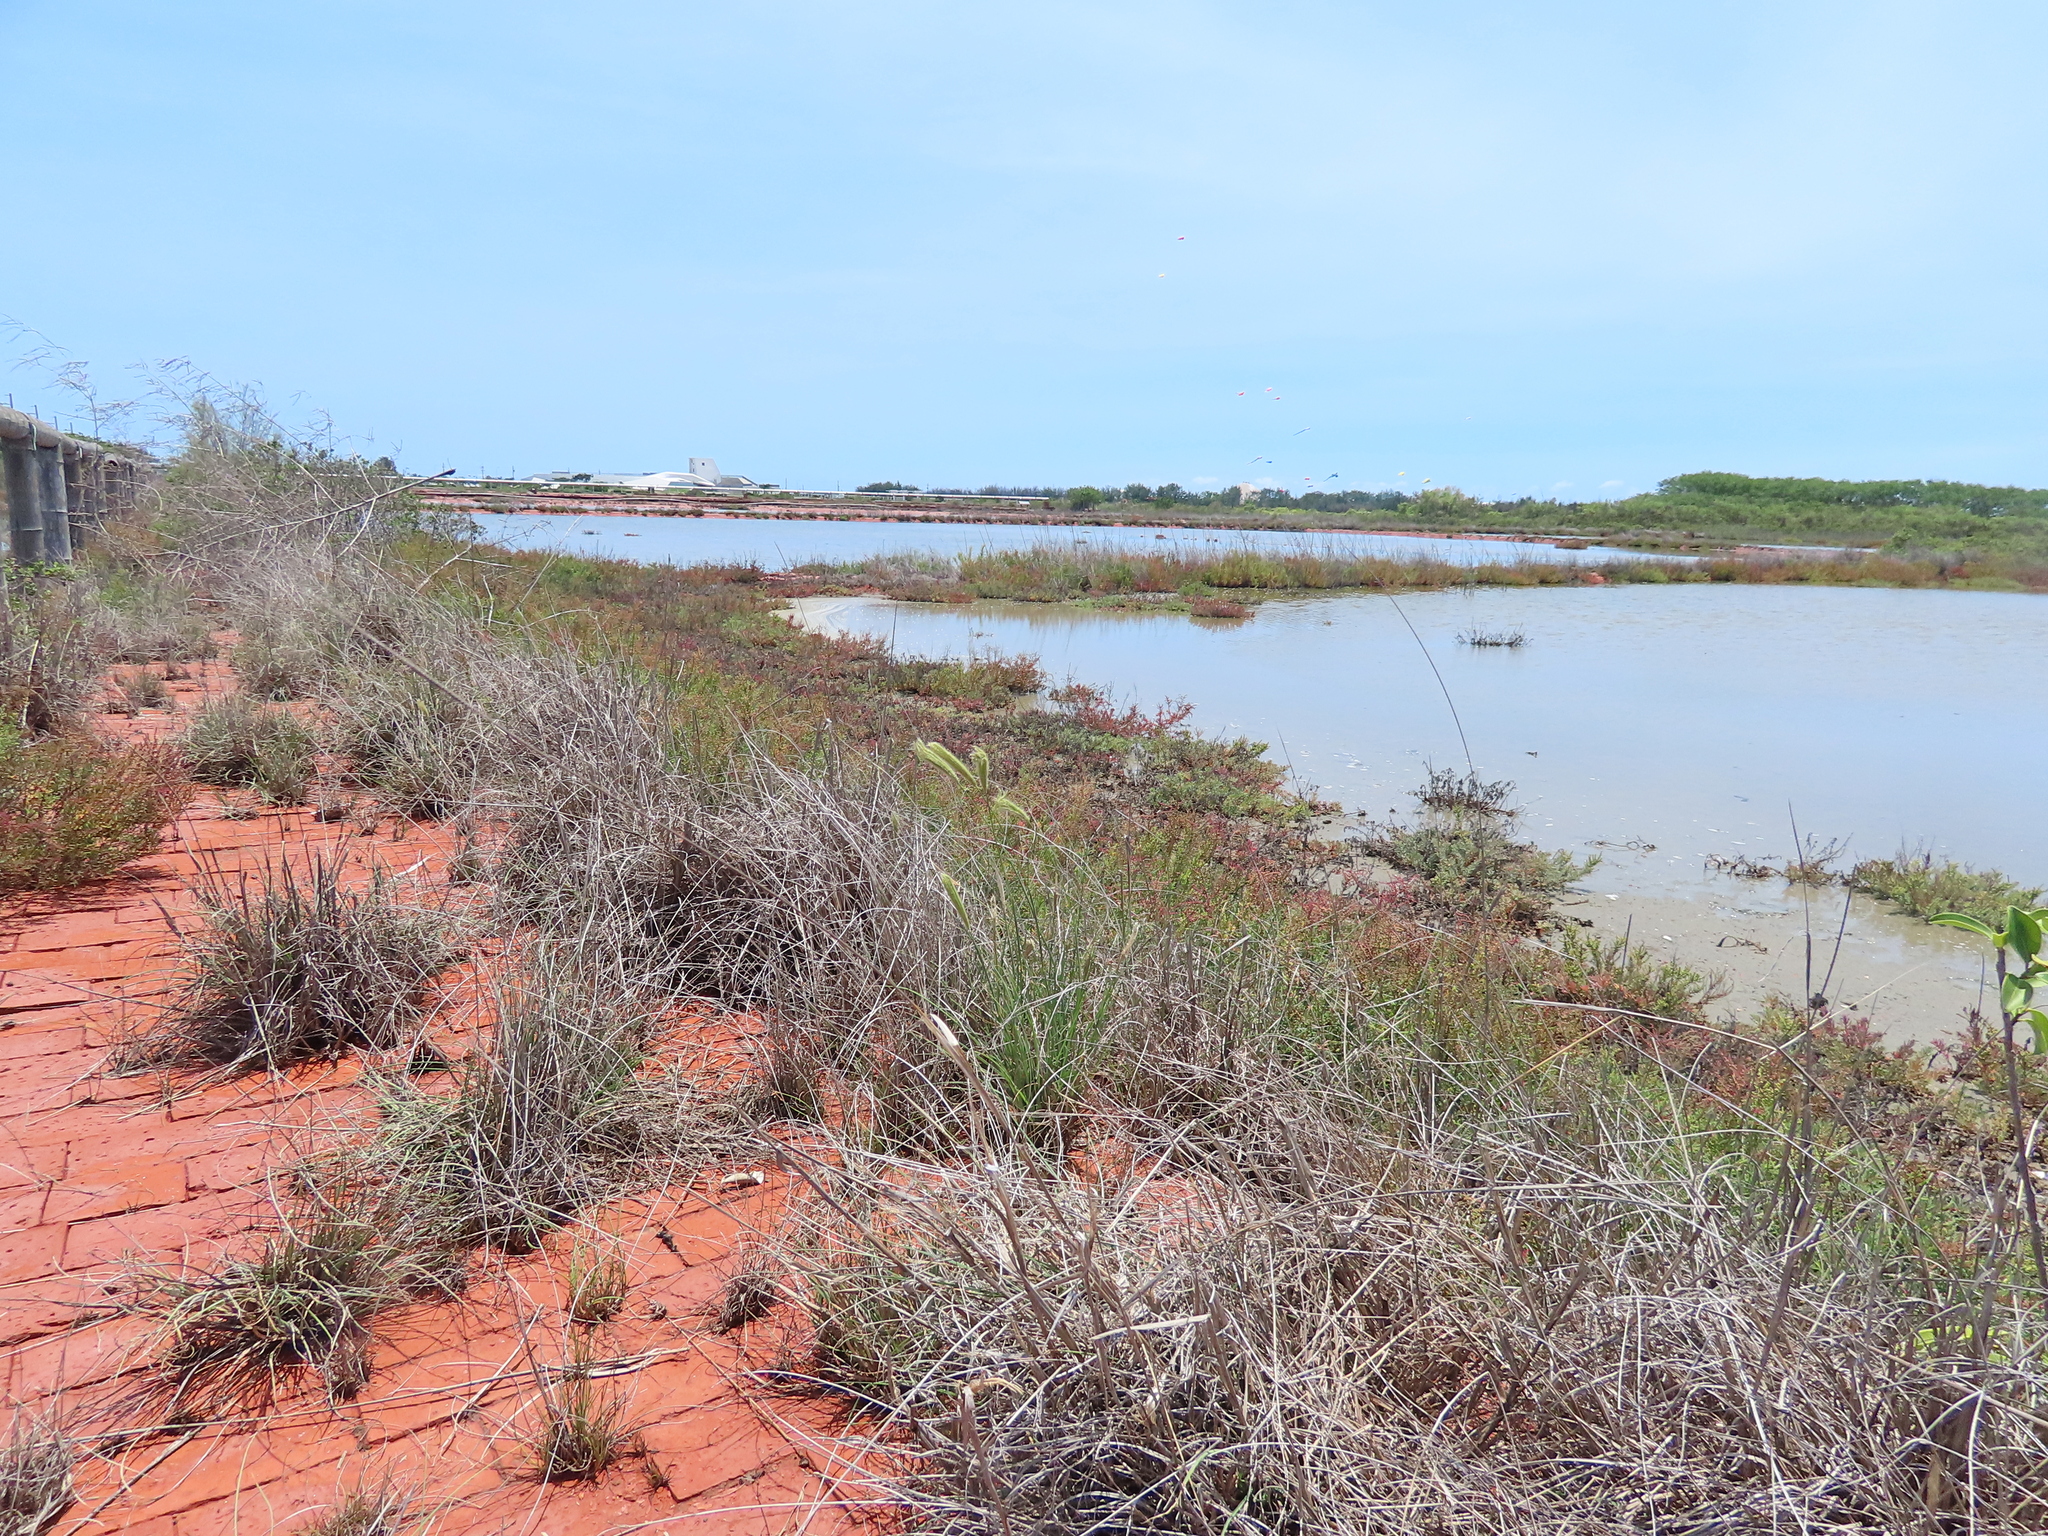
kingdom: Plantae
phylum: Tracheophyta
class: Liliopsida
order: Poales
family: Poaceae
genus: Chloris
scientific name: Chloris formosana
